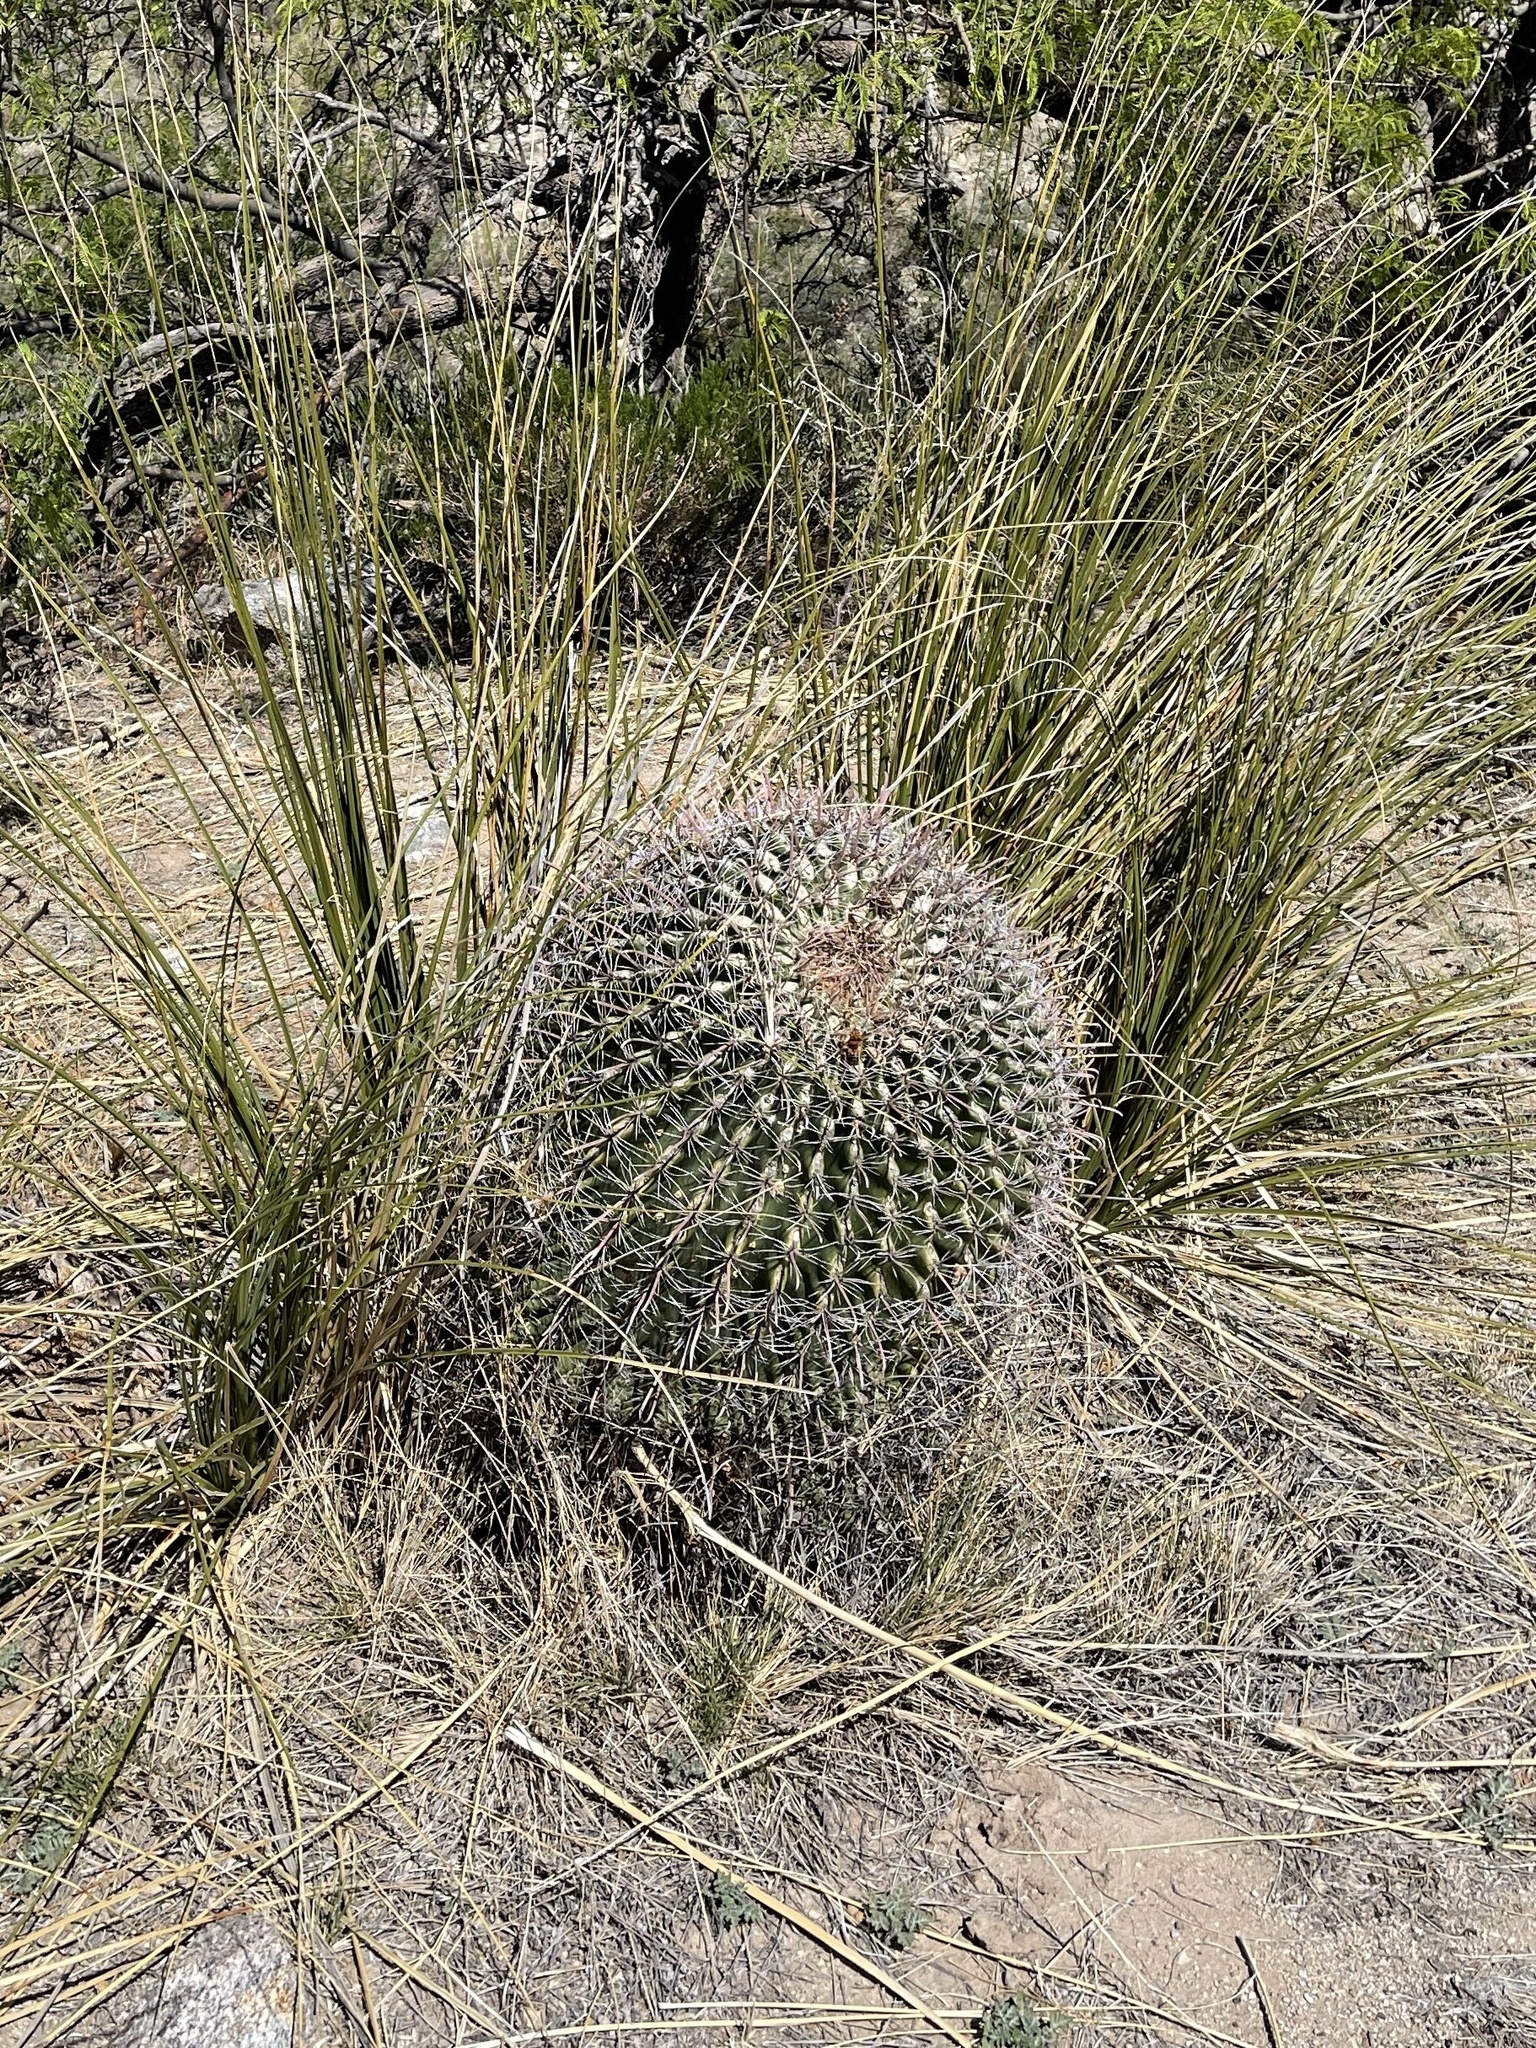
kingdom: Plantae
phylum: Tracheophyta
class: Magnoliopsida
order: Caryophyllales
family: Cactaceae
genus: Ferocactus
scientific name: Ferocactus wislizeni
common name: Candy barrel cactus
